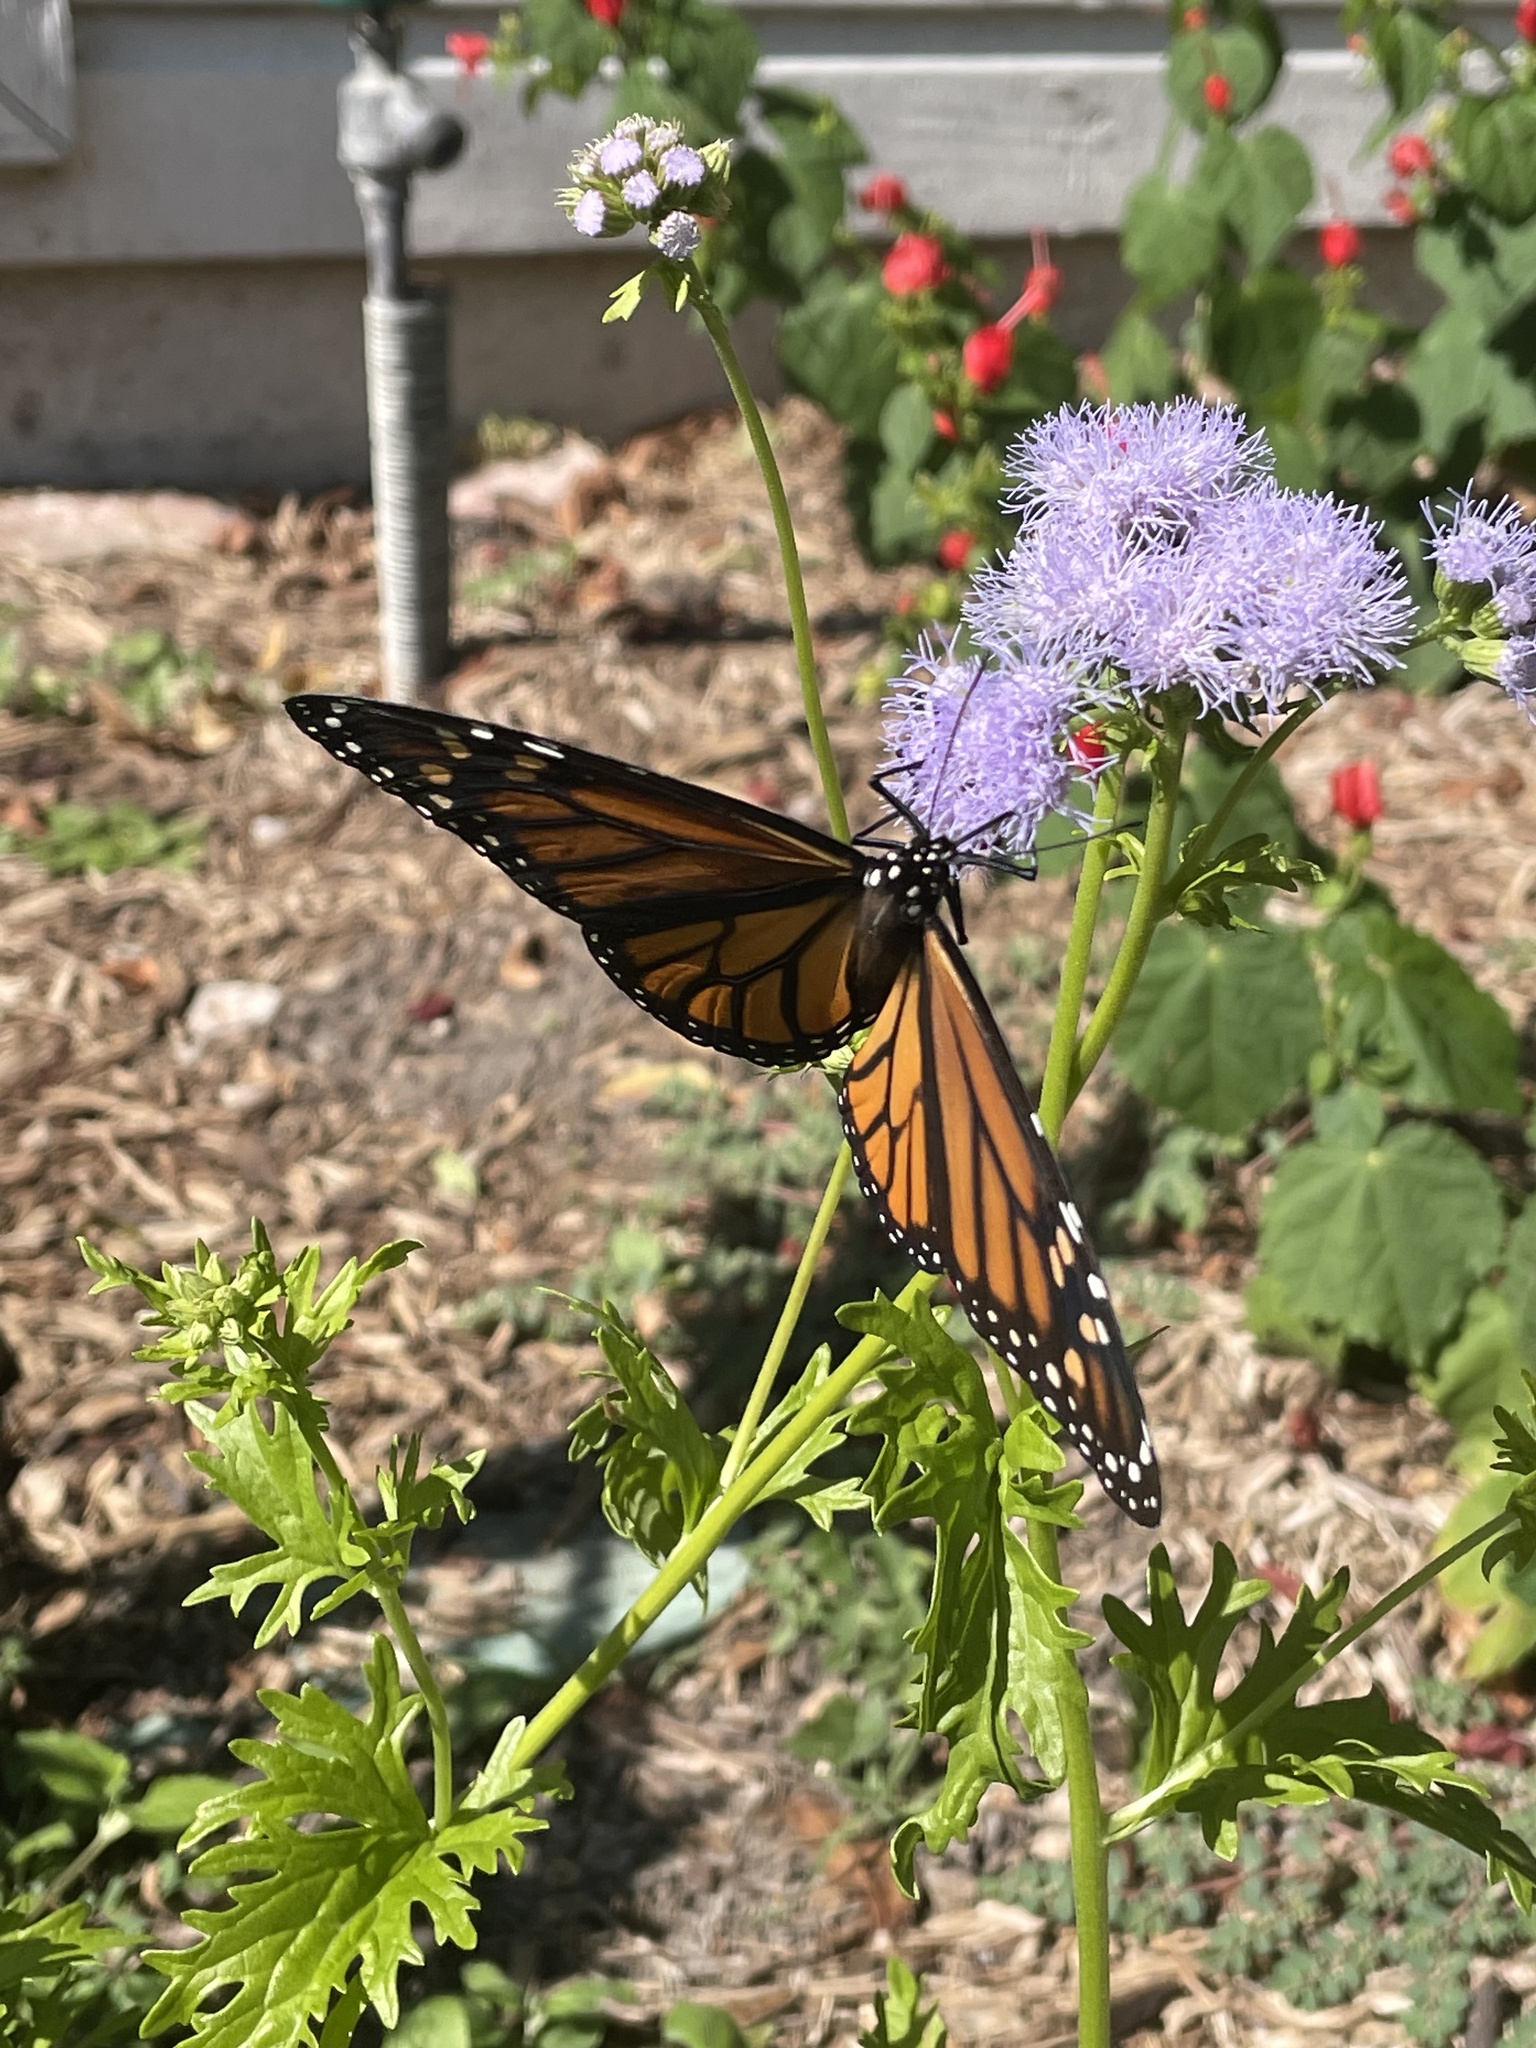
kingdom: Animalia
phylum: Arthropoda
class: Insecta
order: Lepidoptera
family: Nymphalidae
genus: Danaus
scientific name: Danaus plexippus
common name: Monarch
